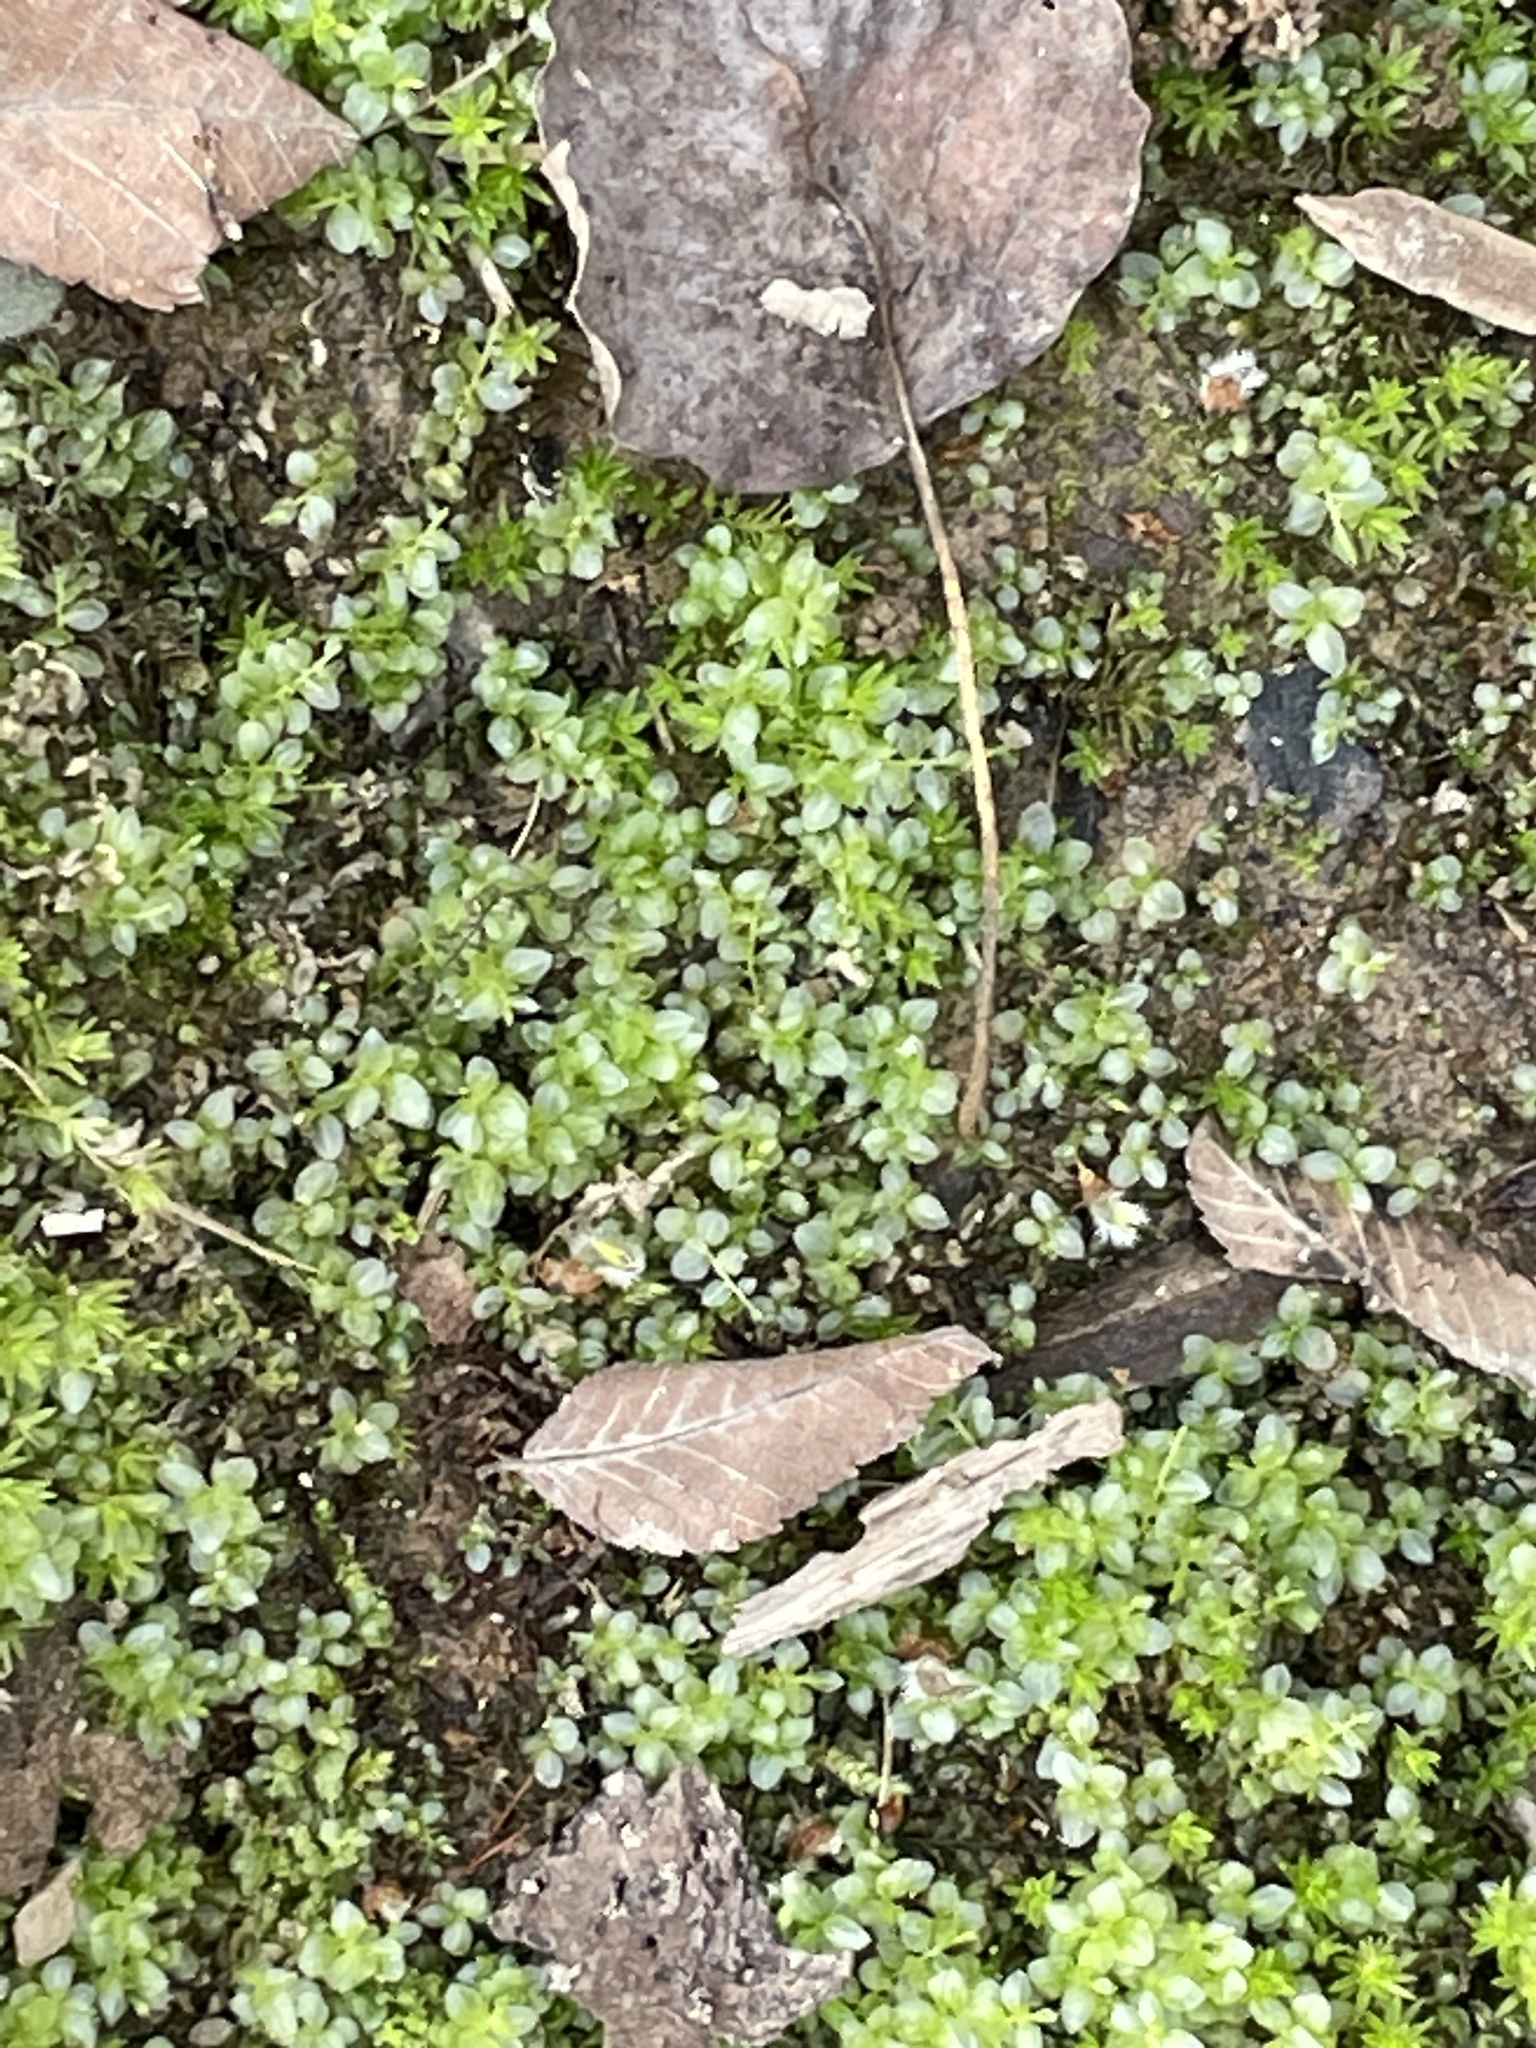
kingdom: Plantae
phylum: Bryophyta
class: Bryopsida
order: Bryales
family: Mniaceae
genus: Plagiomnium
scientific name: Plagiomnium cuspidatum
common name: Woodsy leafy moss
